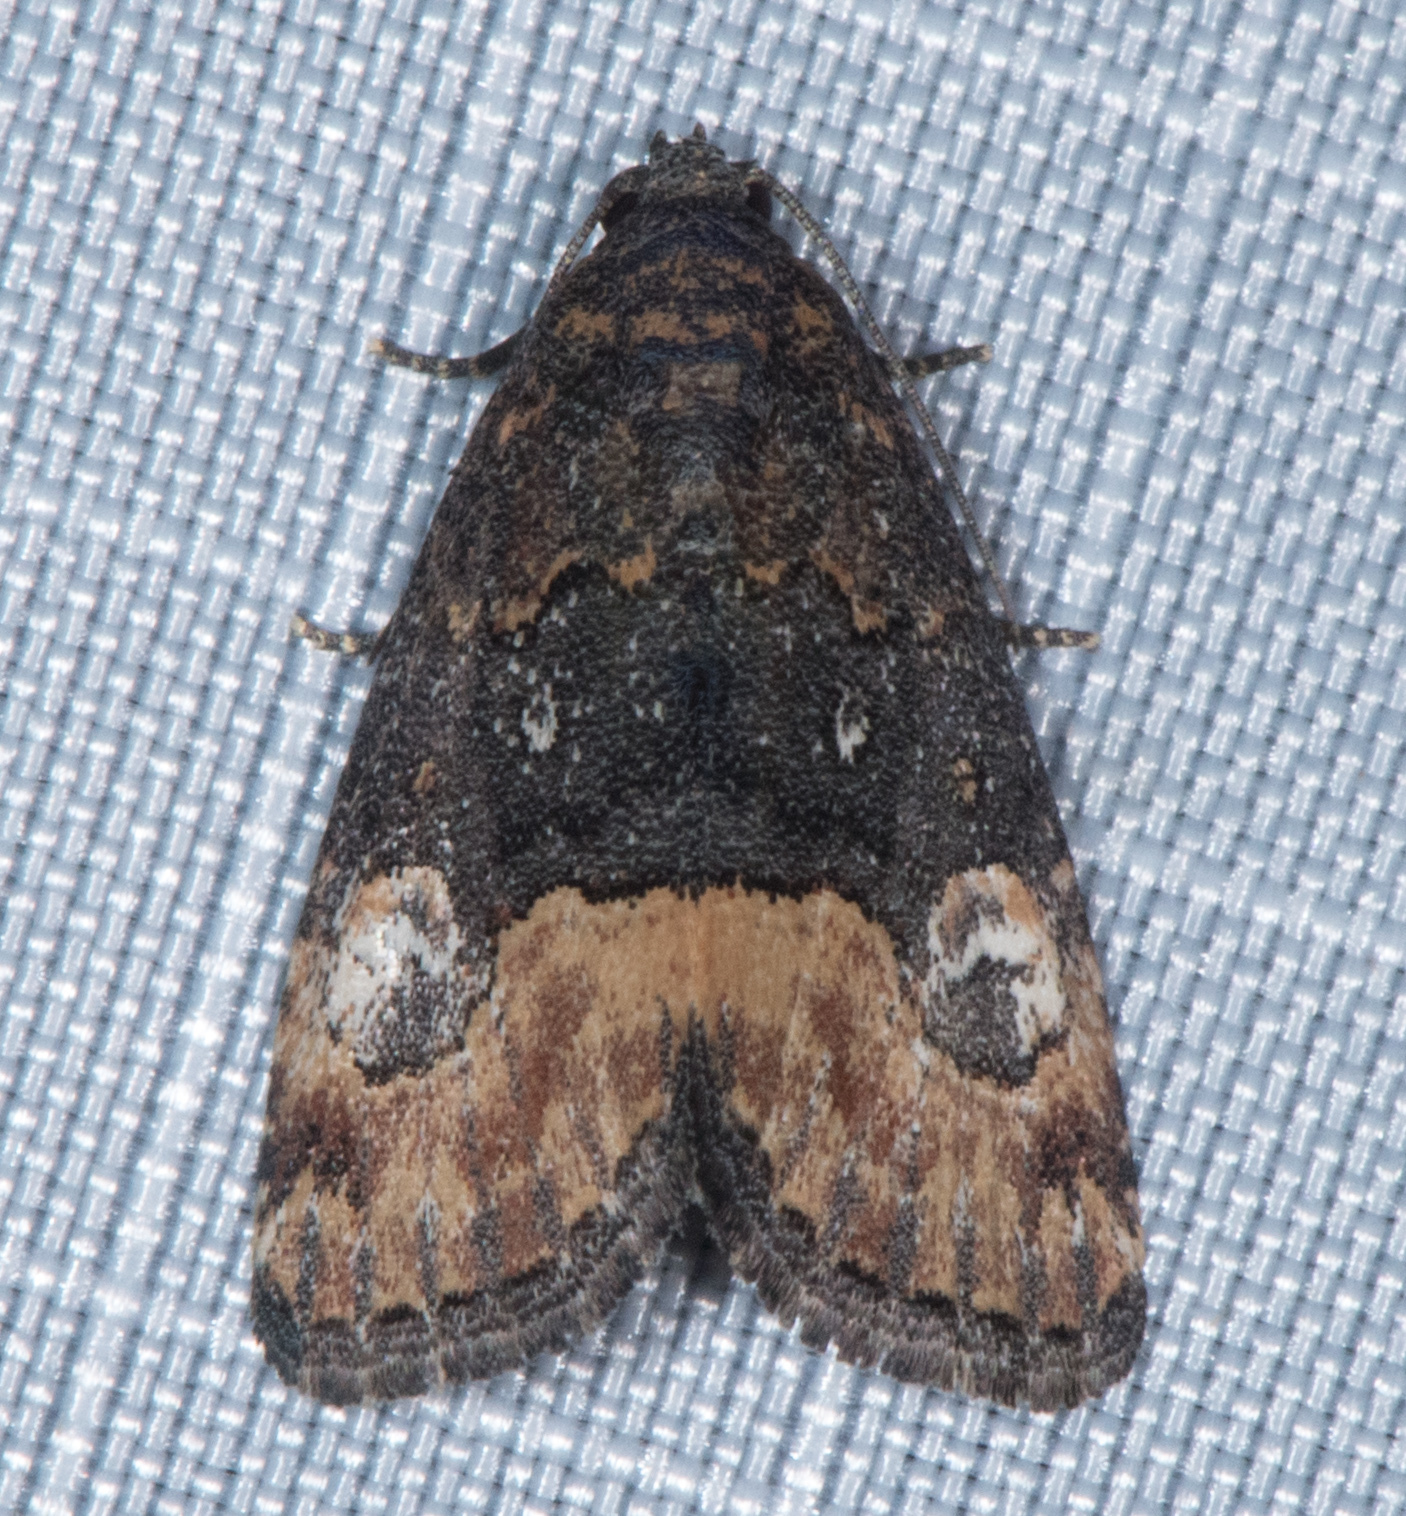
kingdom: Animalia
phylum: Arthropoda
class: Insecta
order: Lepidoptera
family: Noctuidae
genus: Ozarba
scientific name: Ozarba propera
